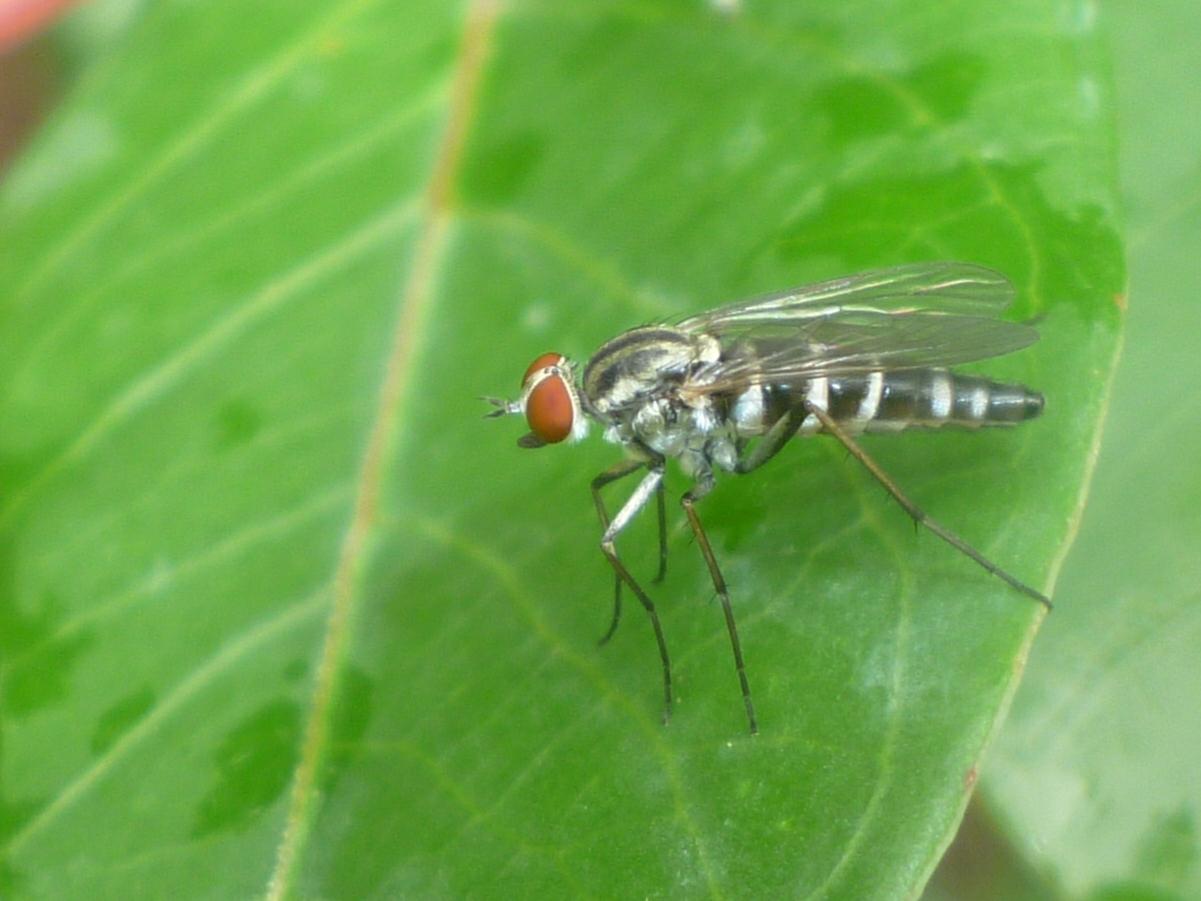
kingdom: Animalia
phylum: Arthropoda
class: Insecta
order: Diptera
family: Therevidae
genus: Penniverpa
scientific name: Penniverpa festina
